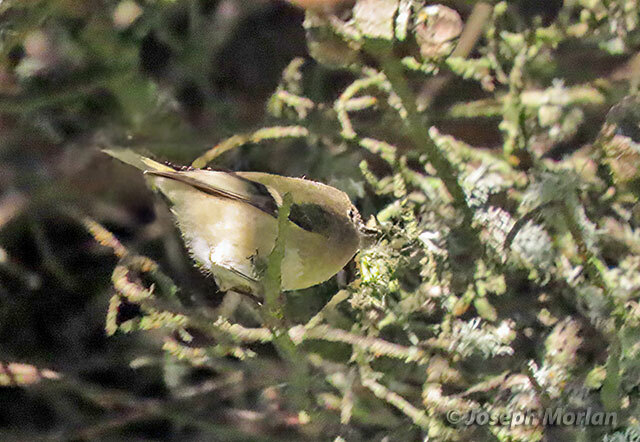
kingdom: Animalia
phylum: Chordata
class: Aves
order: Passeriformes
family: Regulidae
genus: Regulus
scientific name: Regulus calendula
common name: Ruby-crowned kinglet
